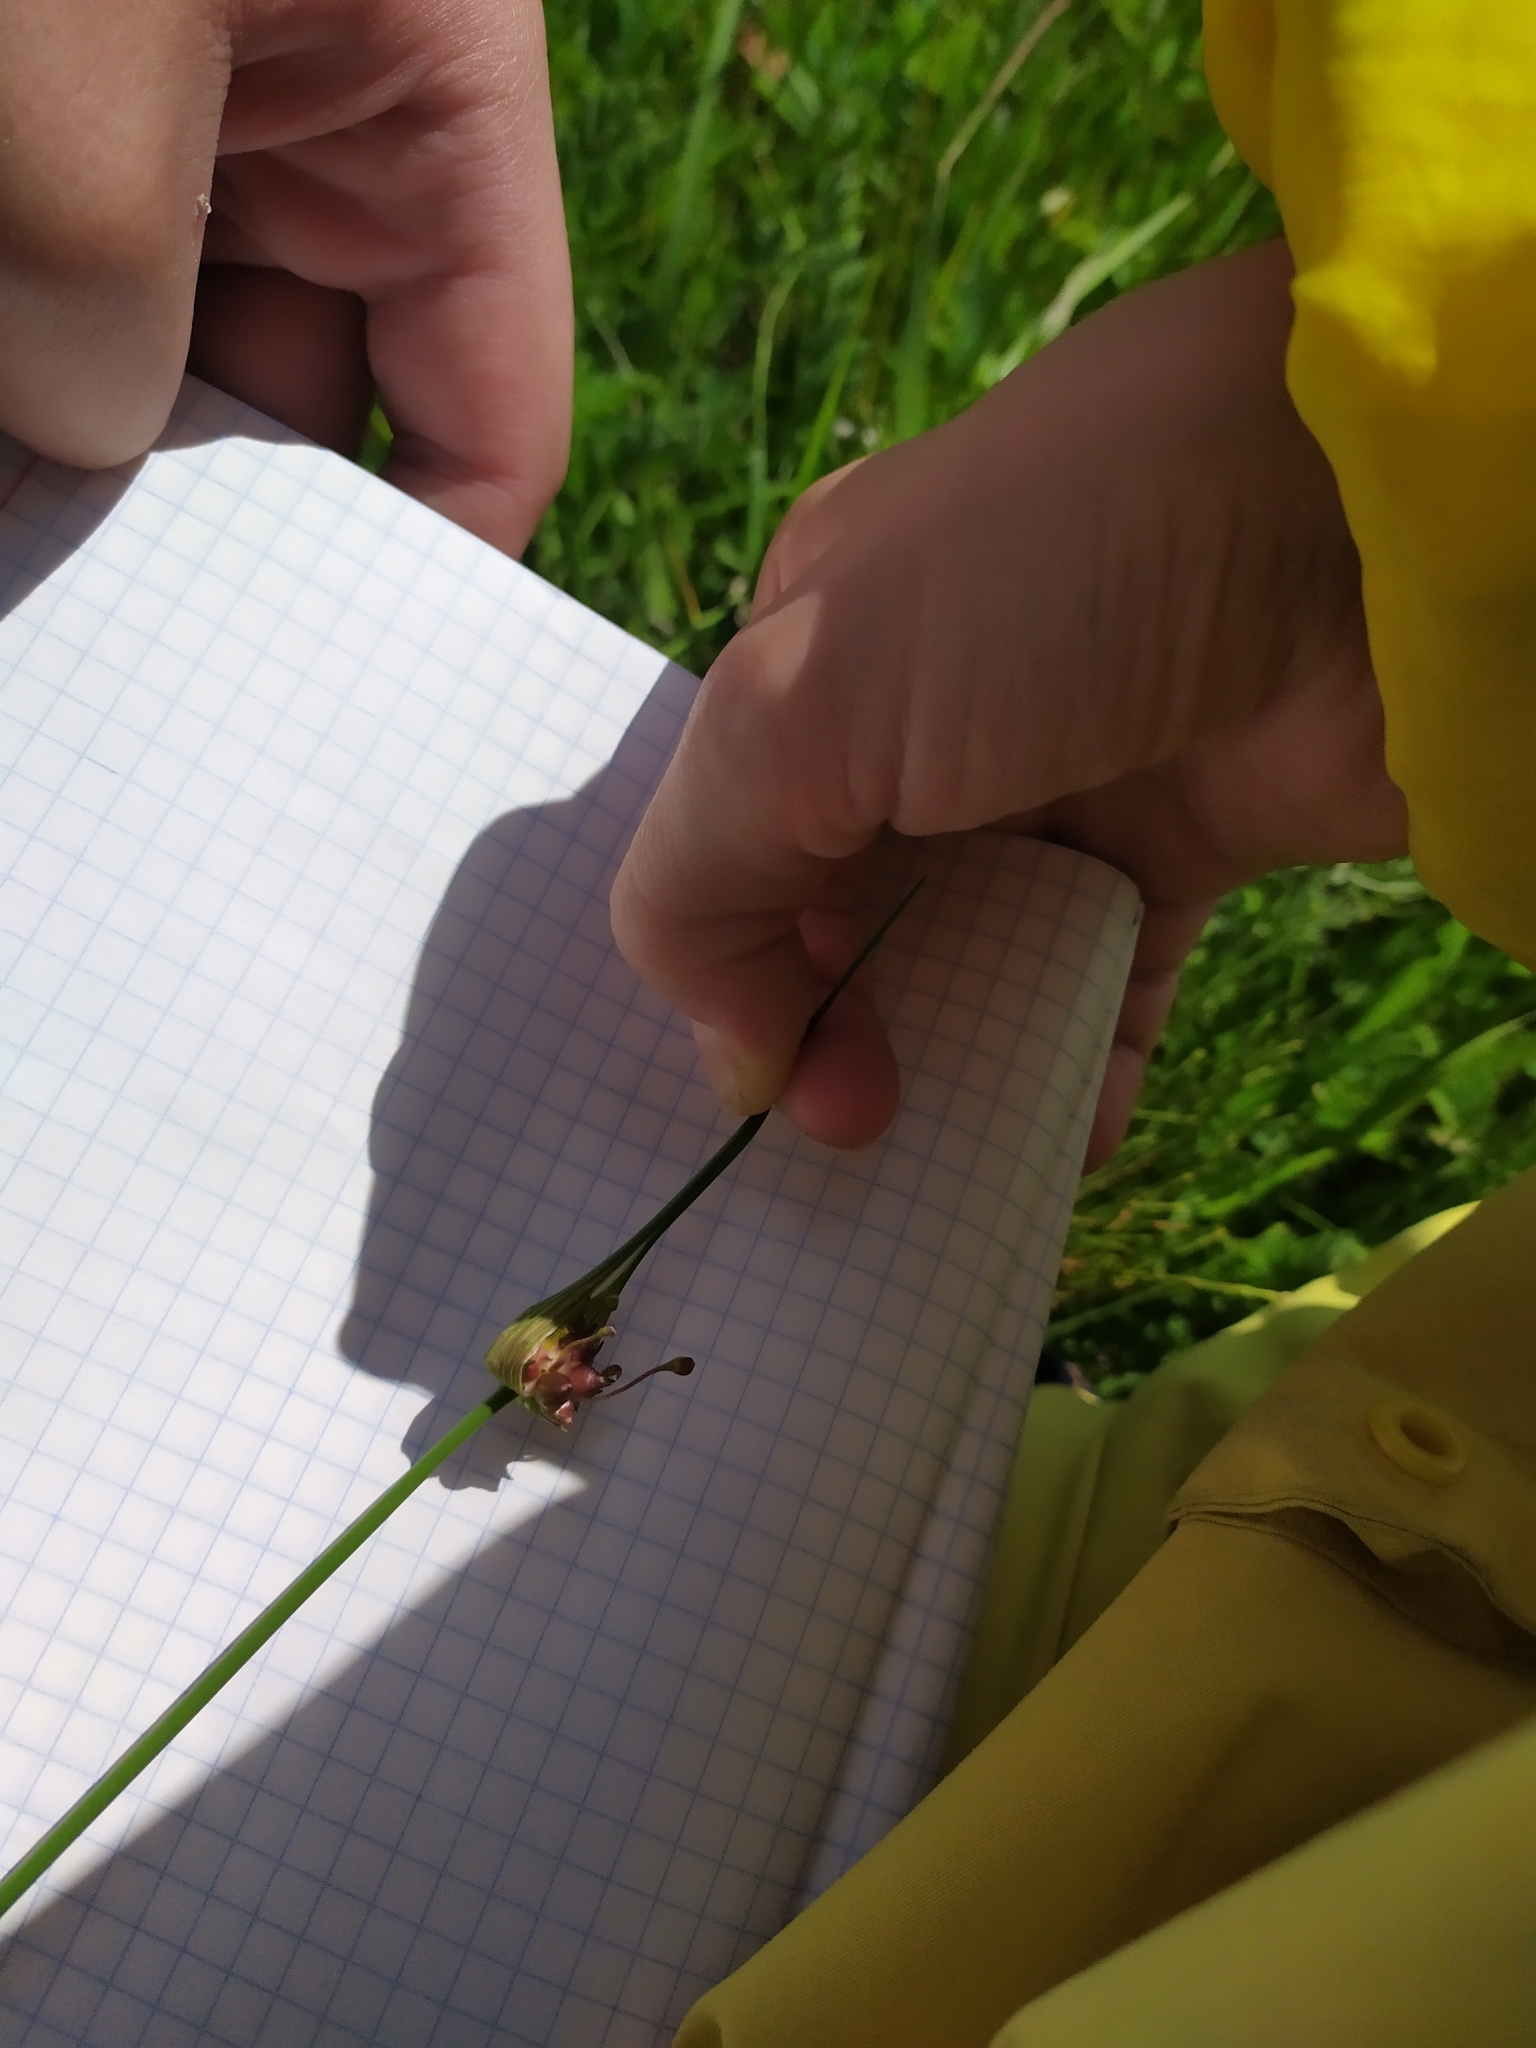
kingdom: Plantae
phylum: Tracheophyta
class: Liliopsida
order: Asparagales
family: Amaryllidaceae
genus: Allium
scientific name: Allium oleraceum
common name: Field garlic
